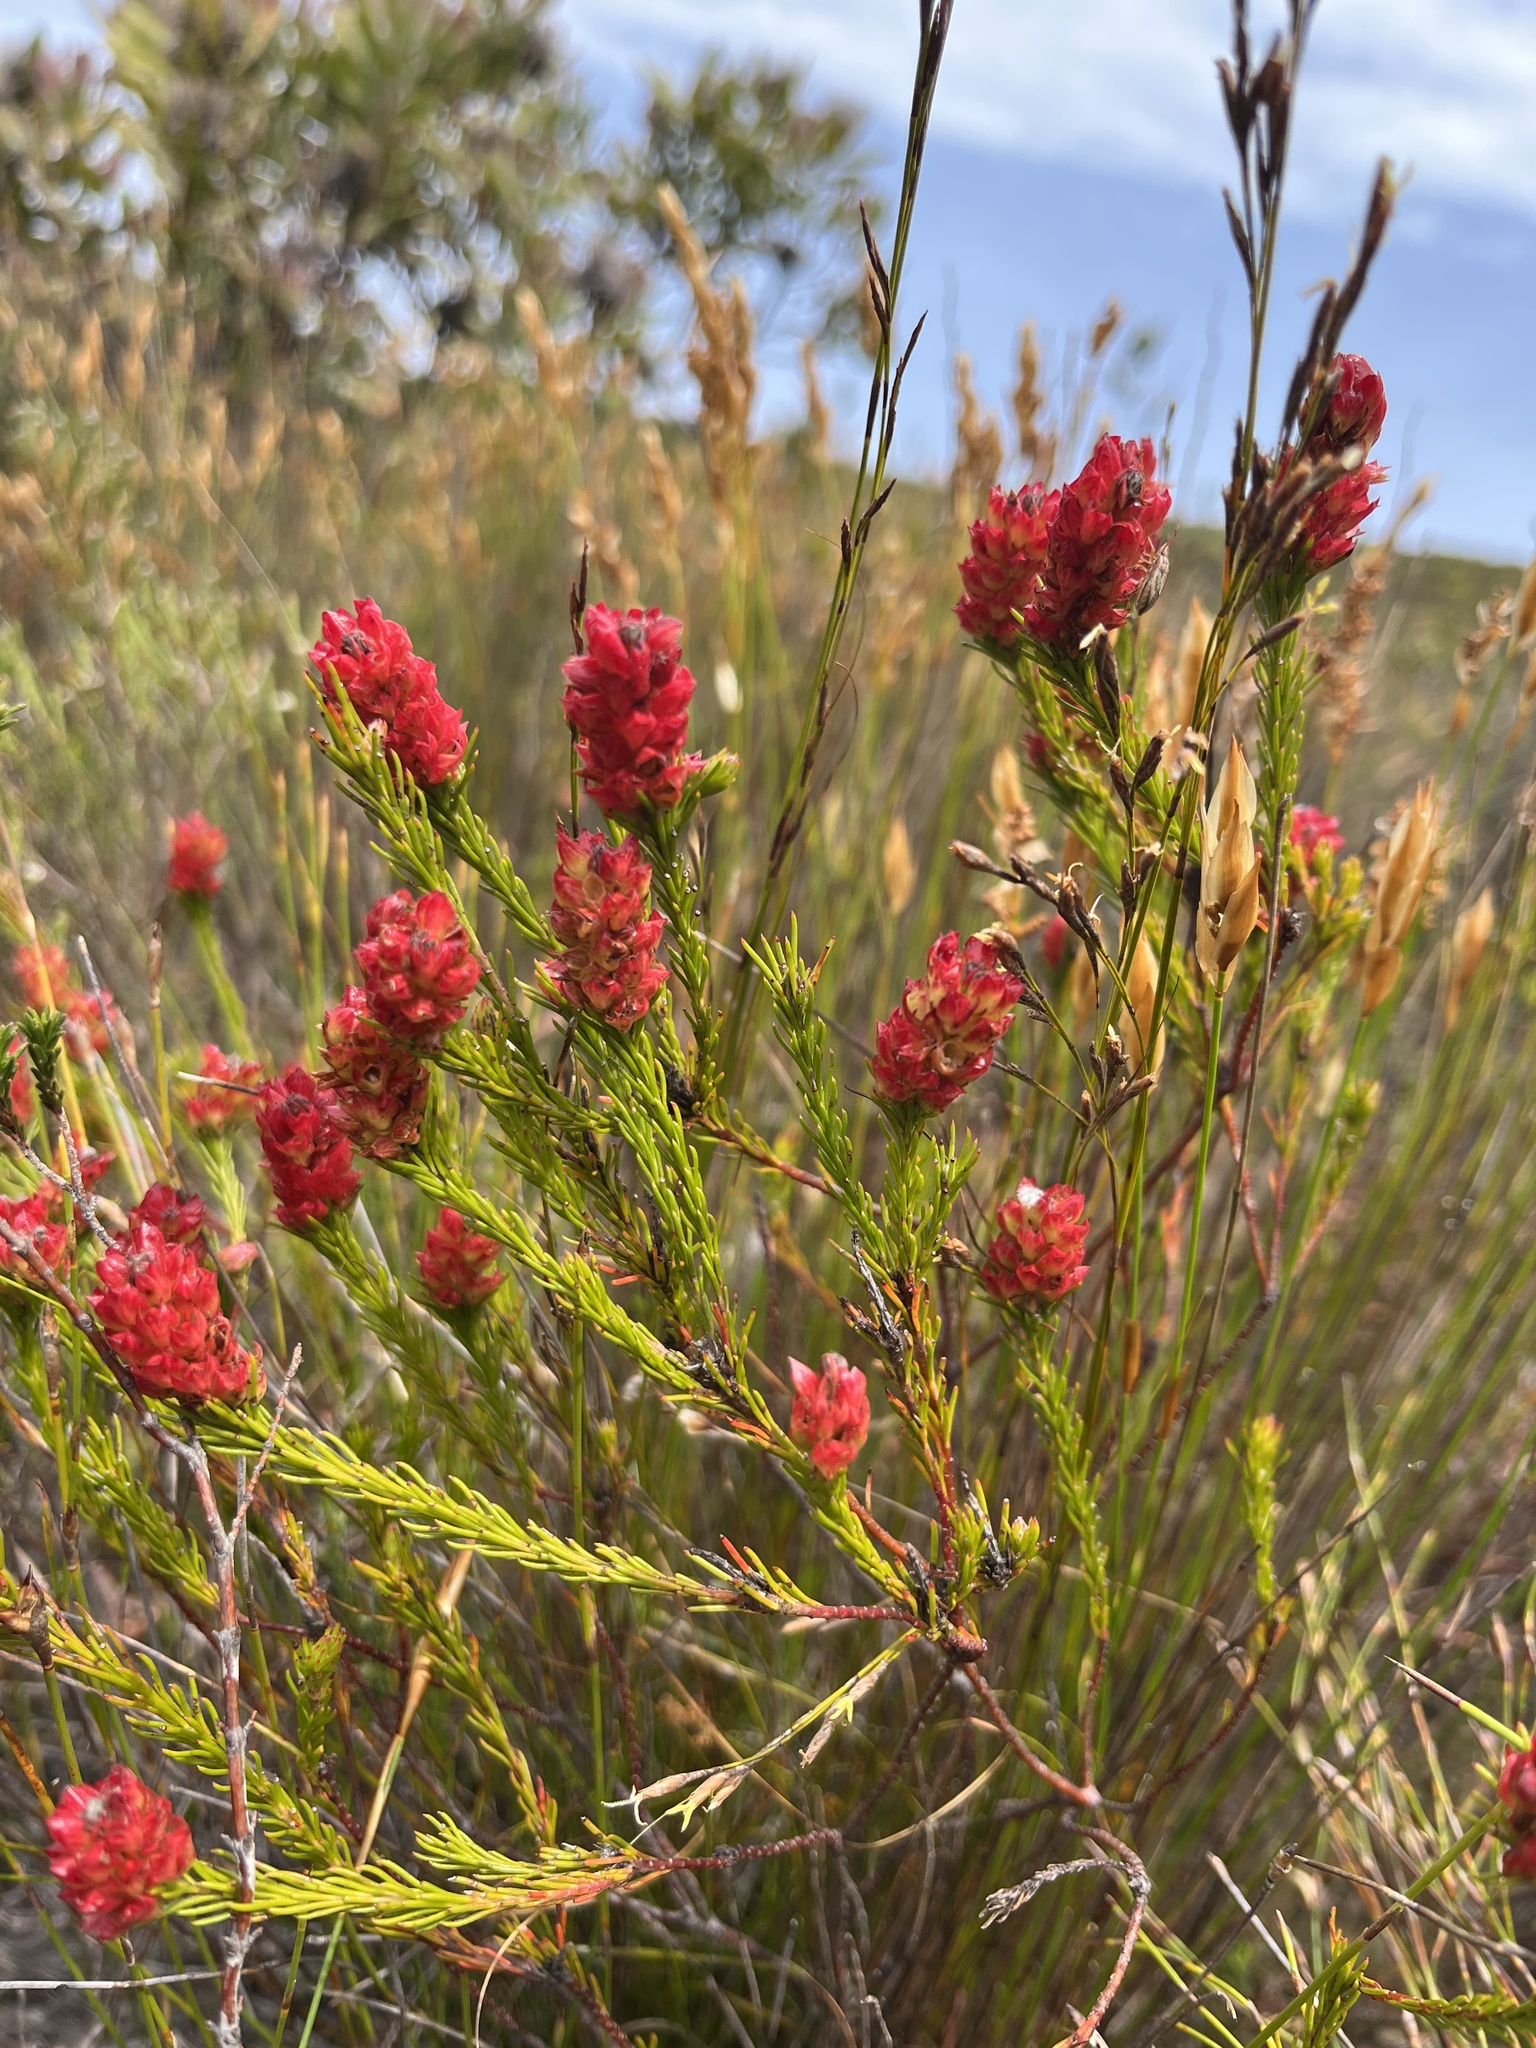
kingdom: Plantae
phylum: Tracheophyta
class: Magnoliopsida
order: Proteales
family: Proteaceae
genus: Spatalla
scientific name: Spatalla squamata
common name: Silky spoon
